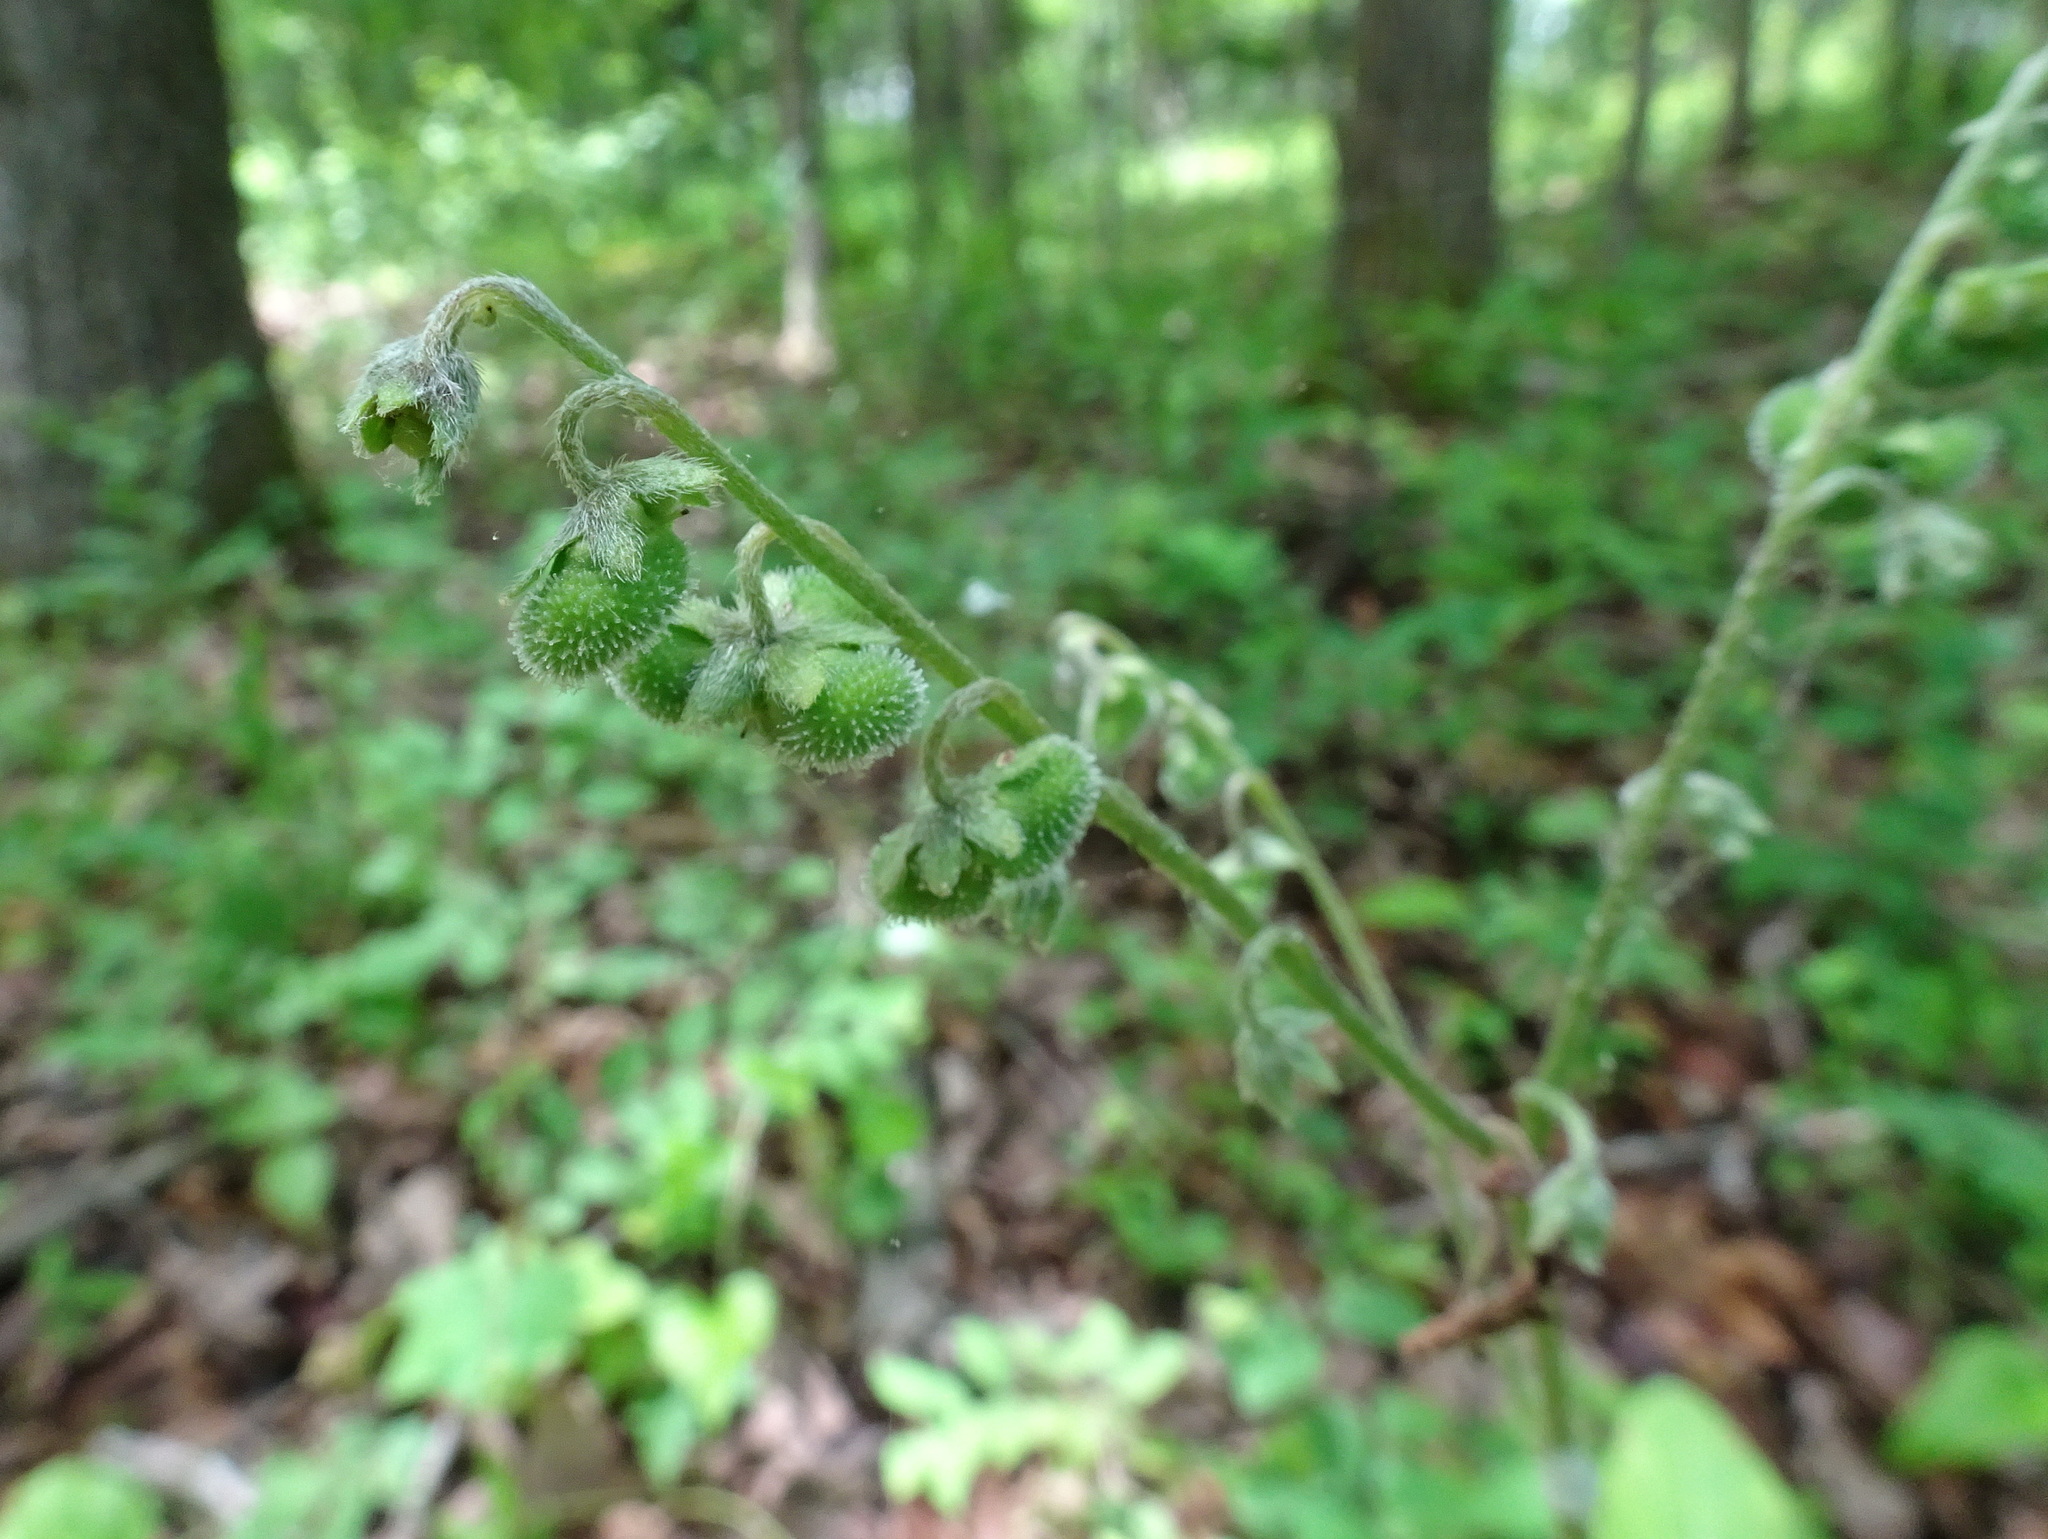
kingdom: Plantae
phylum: Tracheophyta
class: Magnoliopsida
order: Boraginales
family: Boraginaceae
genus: Andersonglossum
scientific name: Andersonglossum virginianum
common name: Wild comfrey
